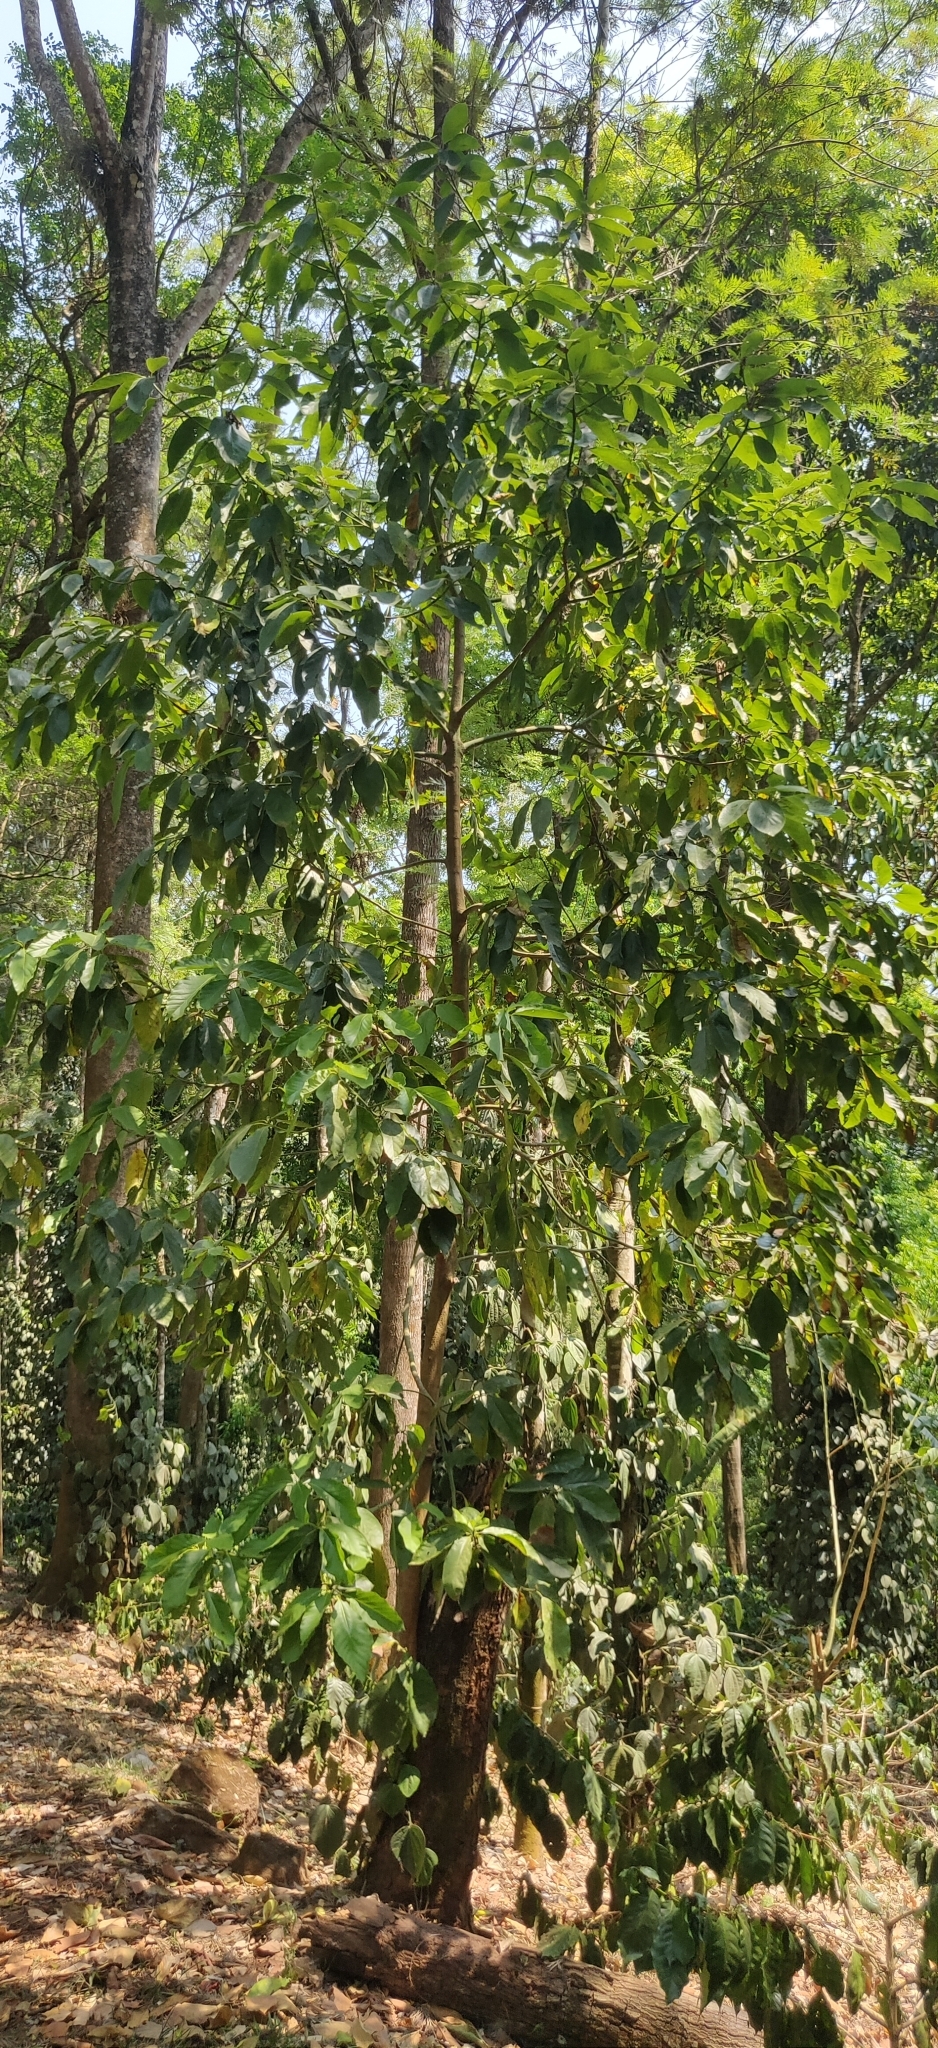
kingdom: Plantae
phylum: Tracheophyta
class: Magnoliopsida
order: Myrtales
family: Combretaceae
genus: Terminalia
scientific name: Terminalia bellirica
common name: Beleric myrobalan
